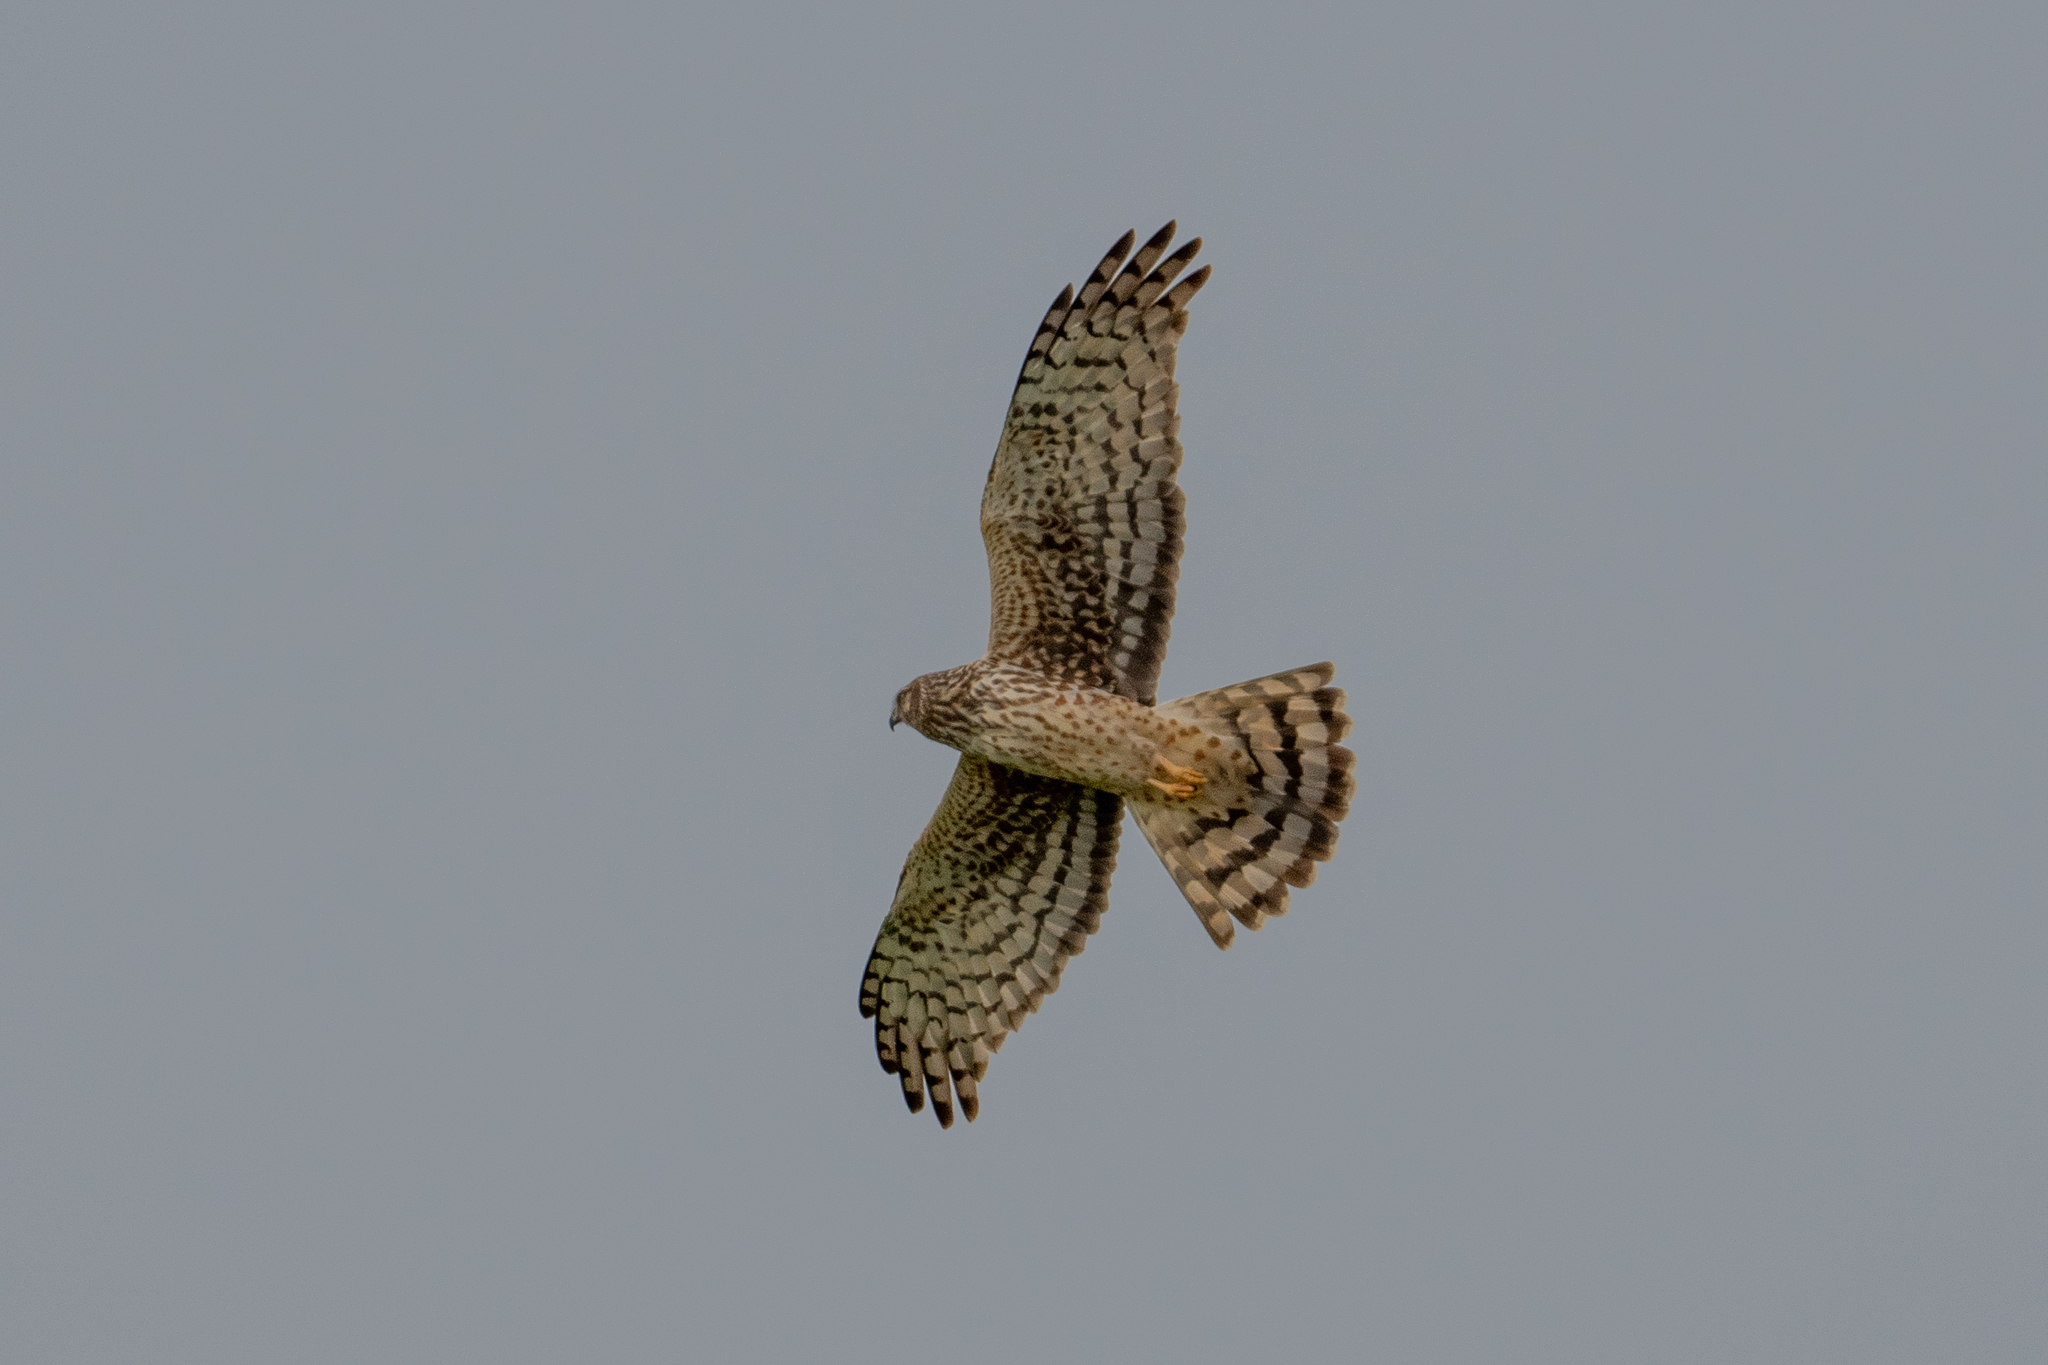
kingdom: Animalia
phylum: Chordata
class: Aves
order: Accipitriformes
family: Accipitridae
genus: Circus
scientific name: Circus cyaneus
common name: Hen harrier
